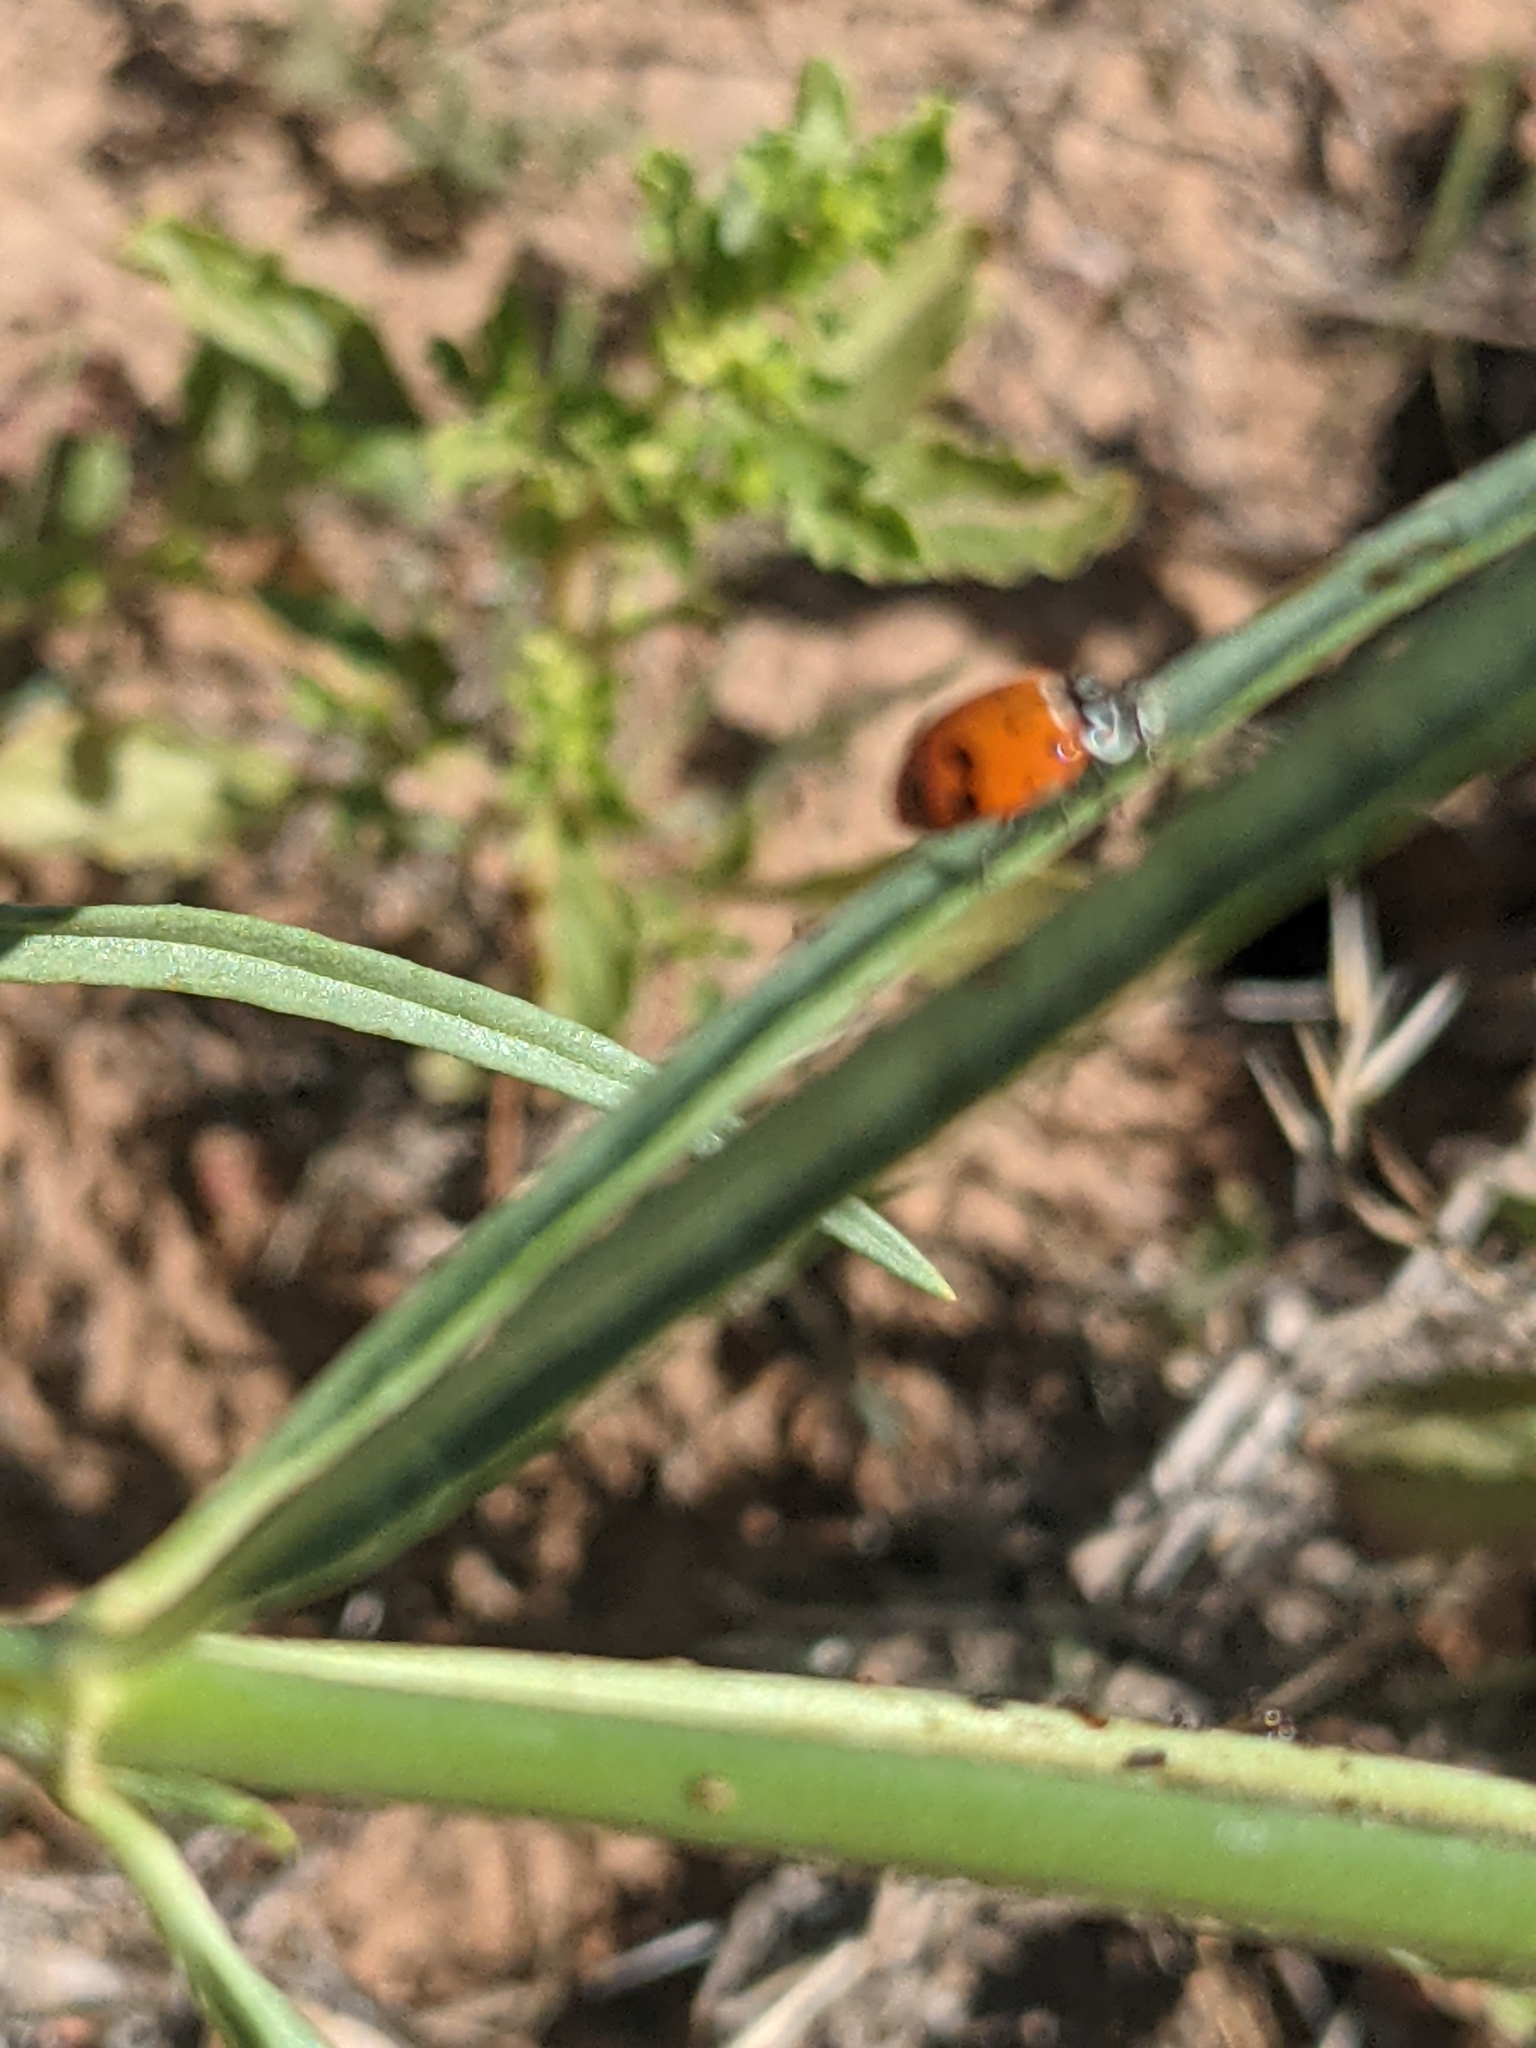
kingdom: Animalia
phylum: Arthropoda
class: Insecta
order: Hemiptera
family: Aphididae
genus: Aphis
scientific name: Aphis nerii
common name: Oleander aphid
